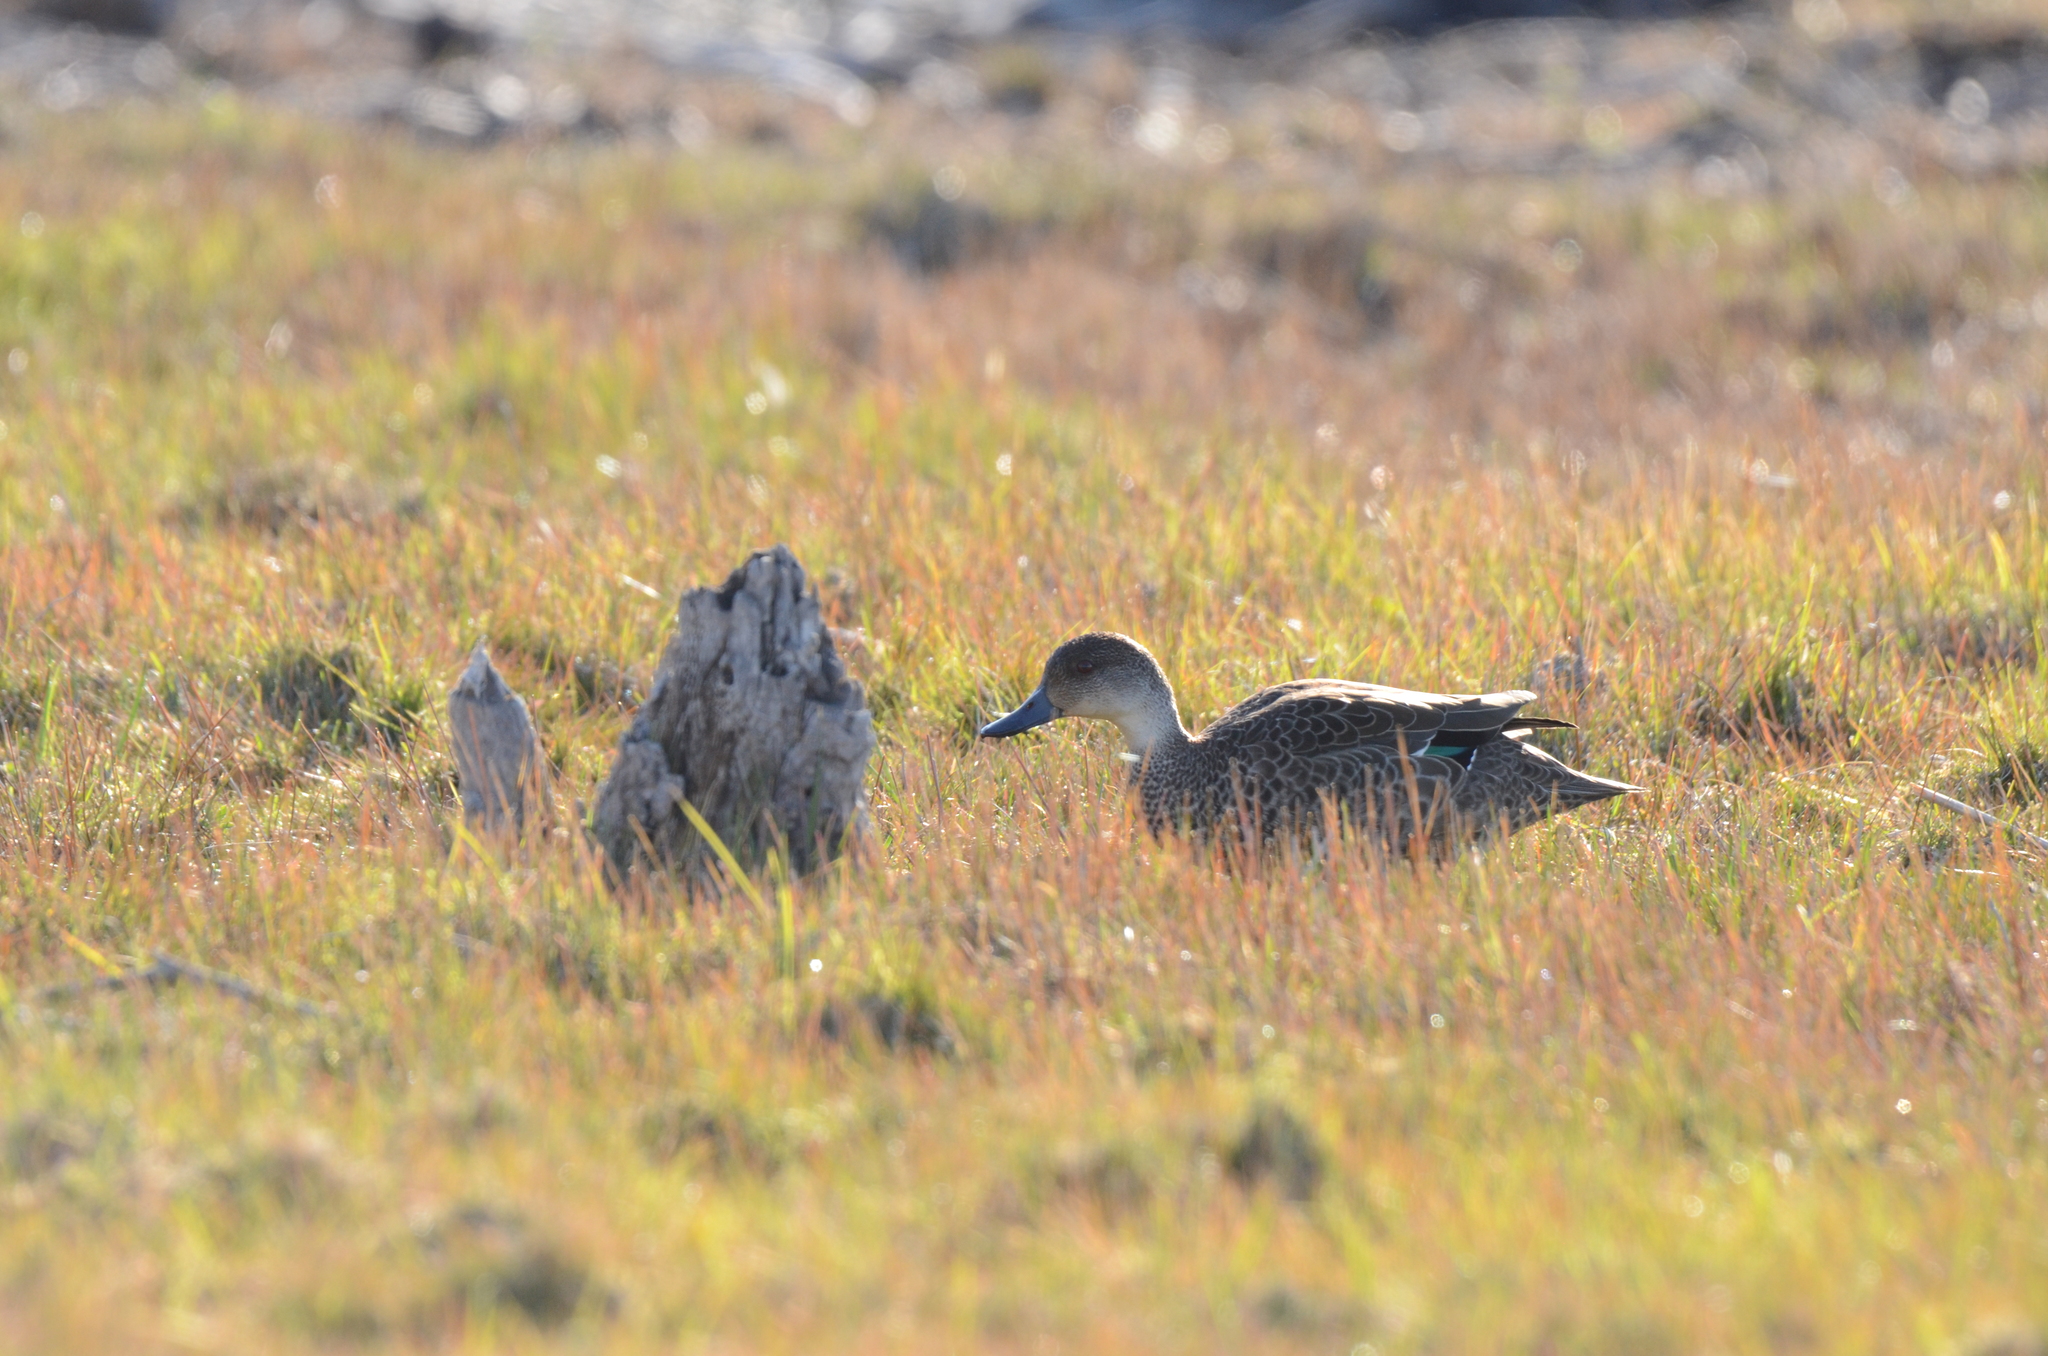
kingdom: Animalia
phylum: Chordata
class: Aves
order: Anseriformes
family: Anatidae
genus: Anas
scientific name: Anas gracilis
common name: Grey teal
